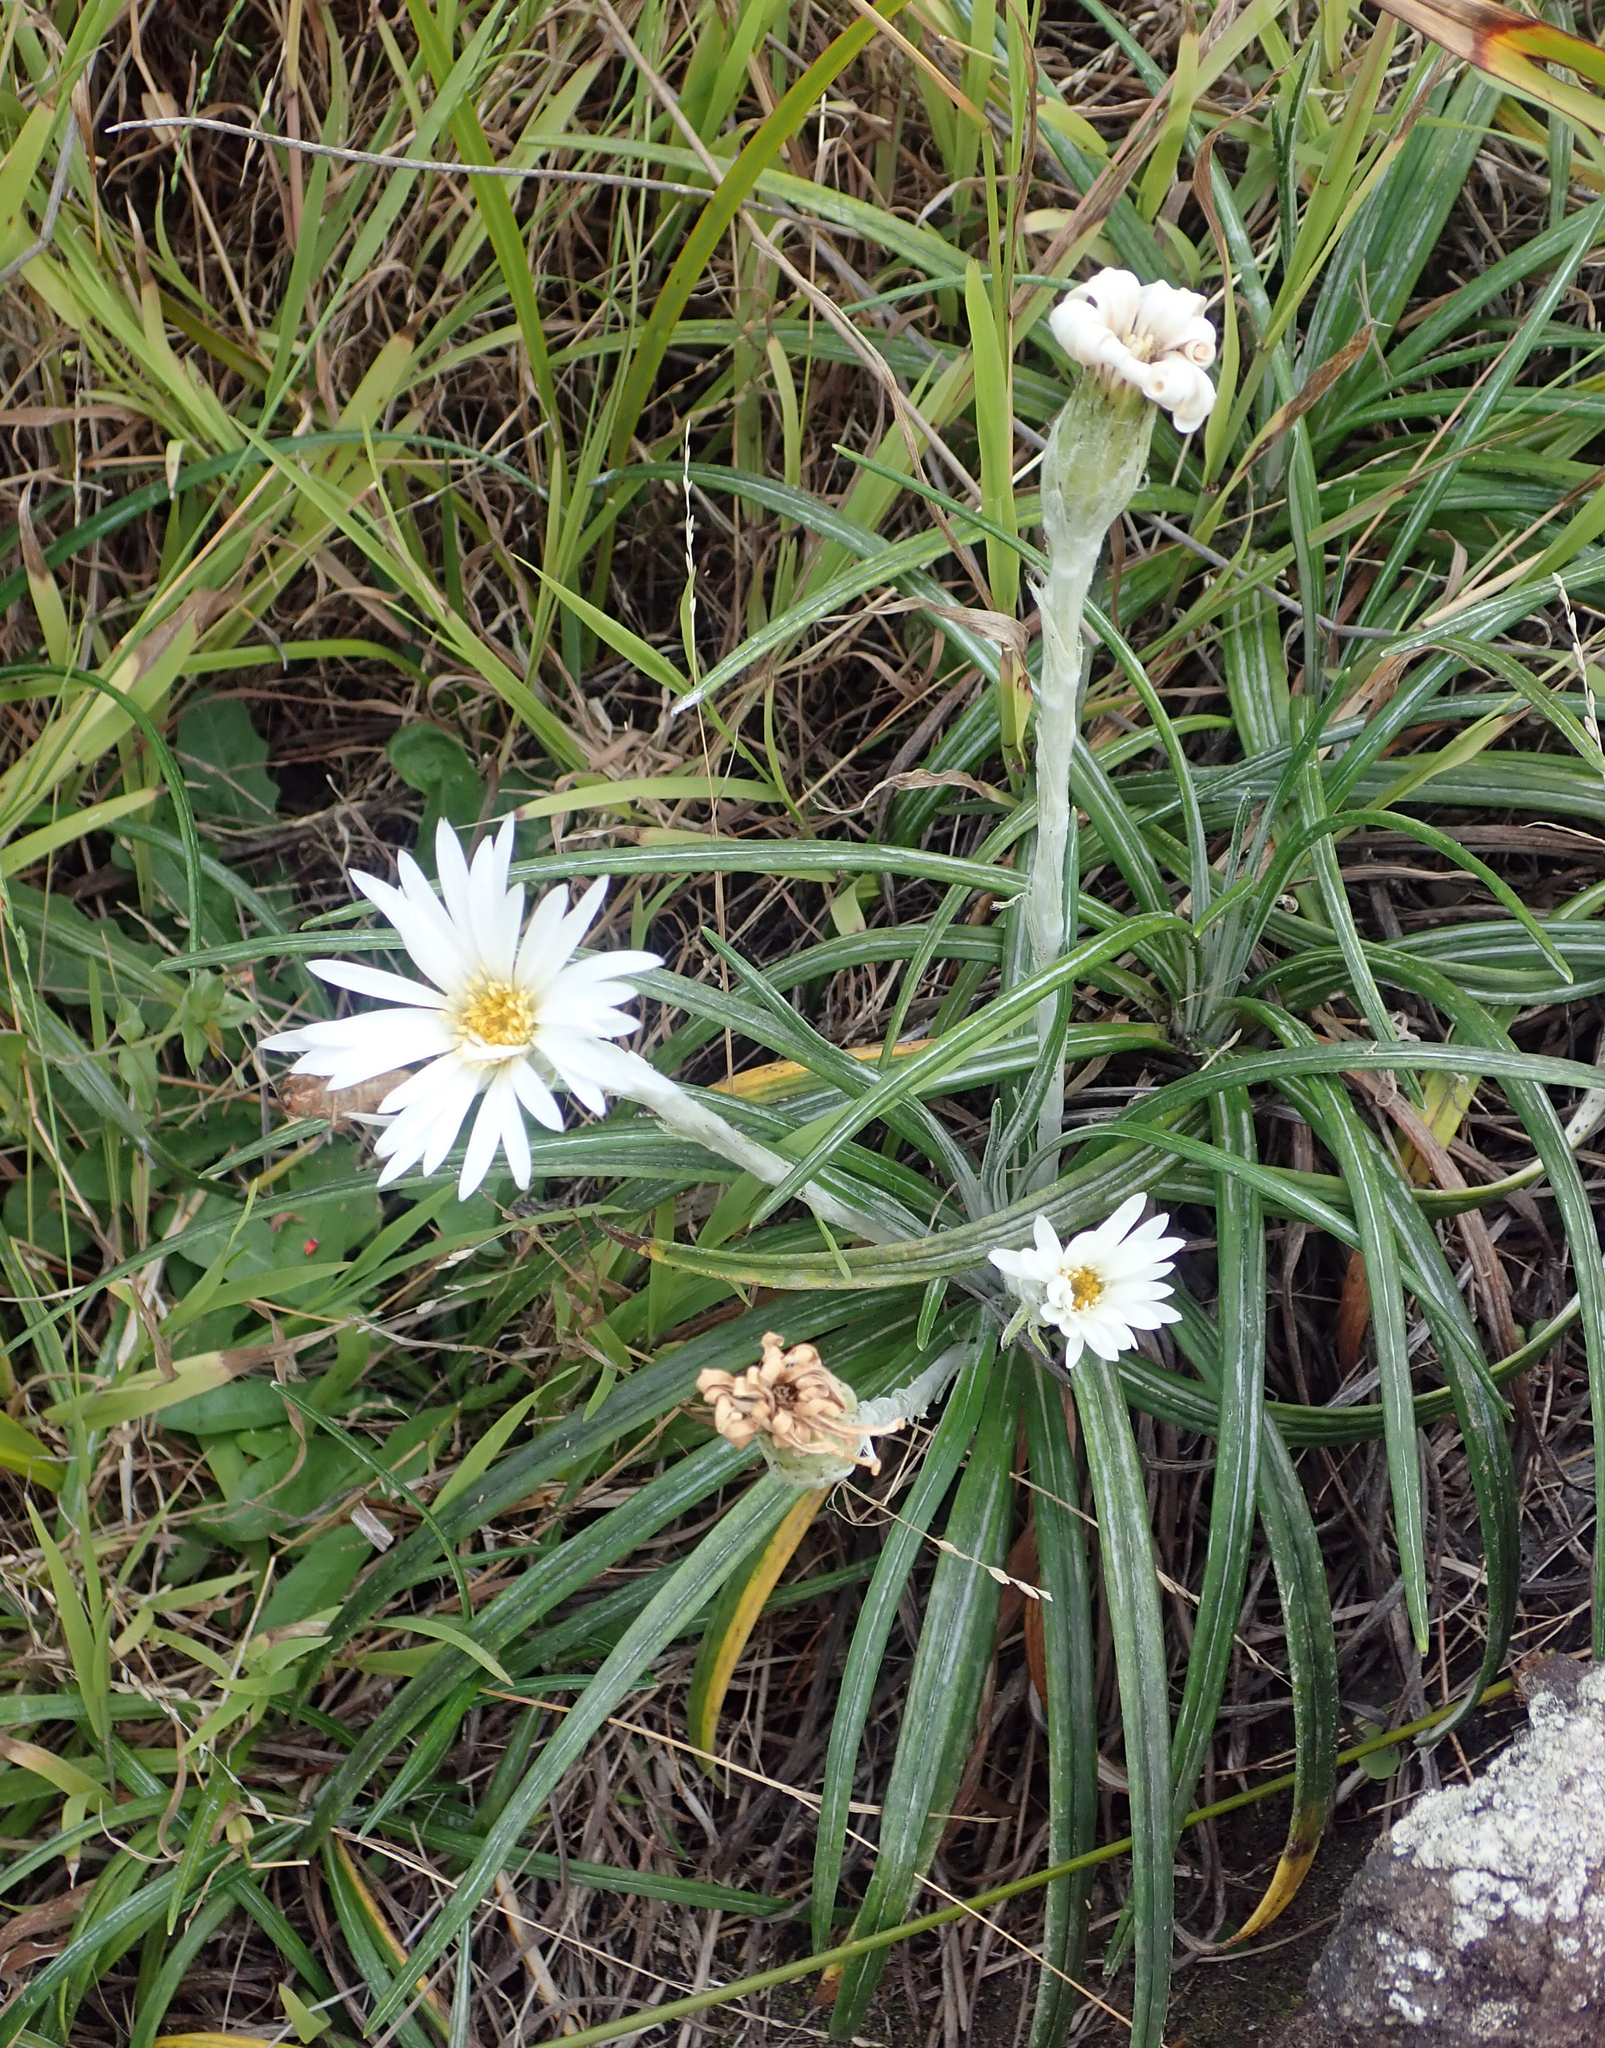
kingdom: Plantae
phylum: Tracheophyta
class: Magnoliopsida
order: Asterales
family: Asteraceae
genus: Celmisia
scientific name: Celmisia major
